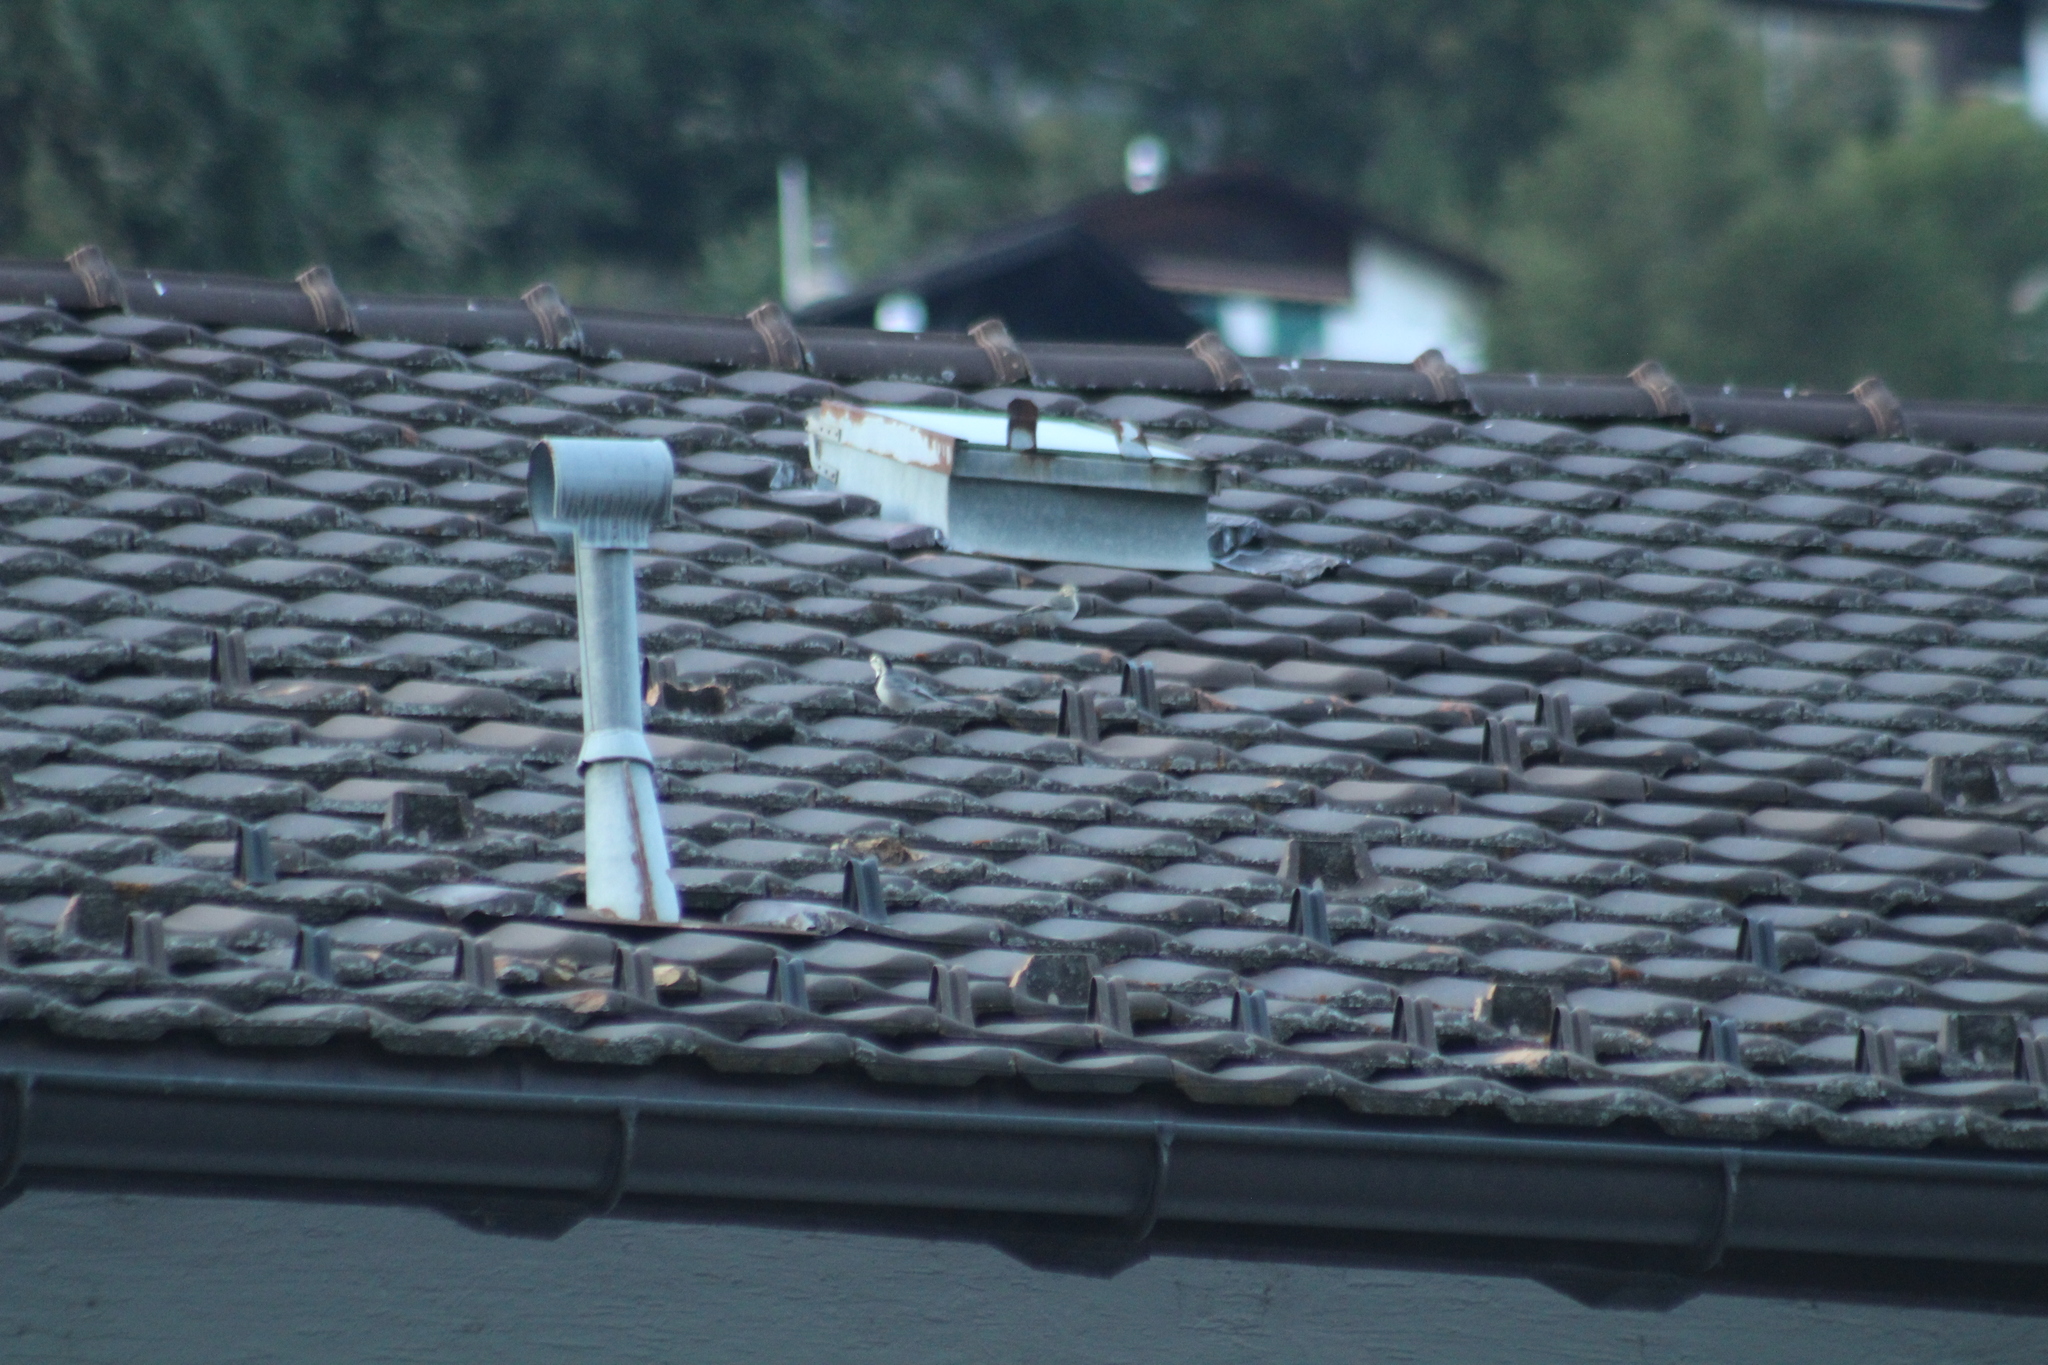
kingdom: Animalia
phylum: Chordata
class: Aves
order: Passeriformes
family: Motacillidae
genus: Motacilla
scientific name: Motacilla alba
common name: White wagtail
